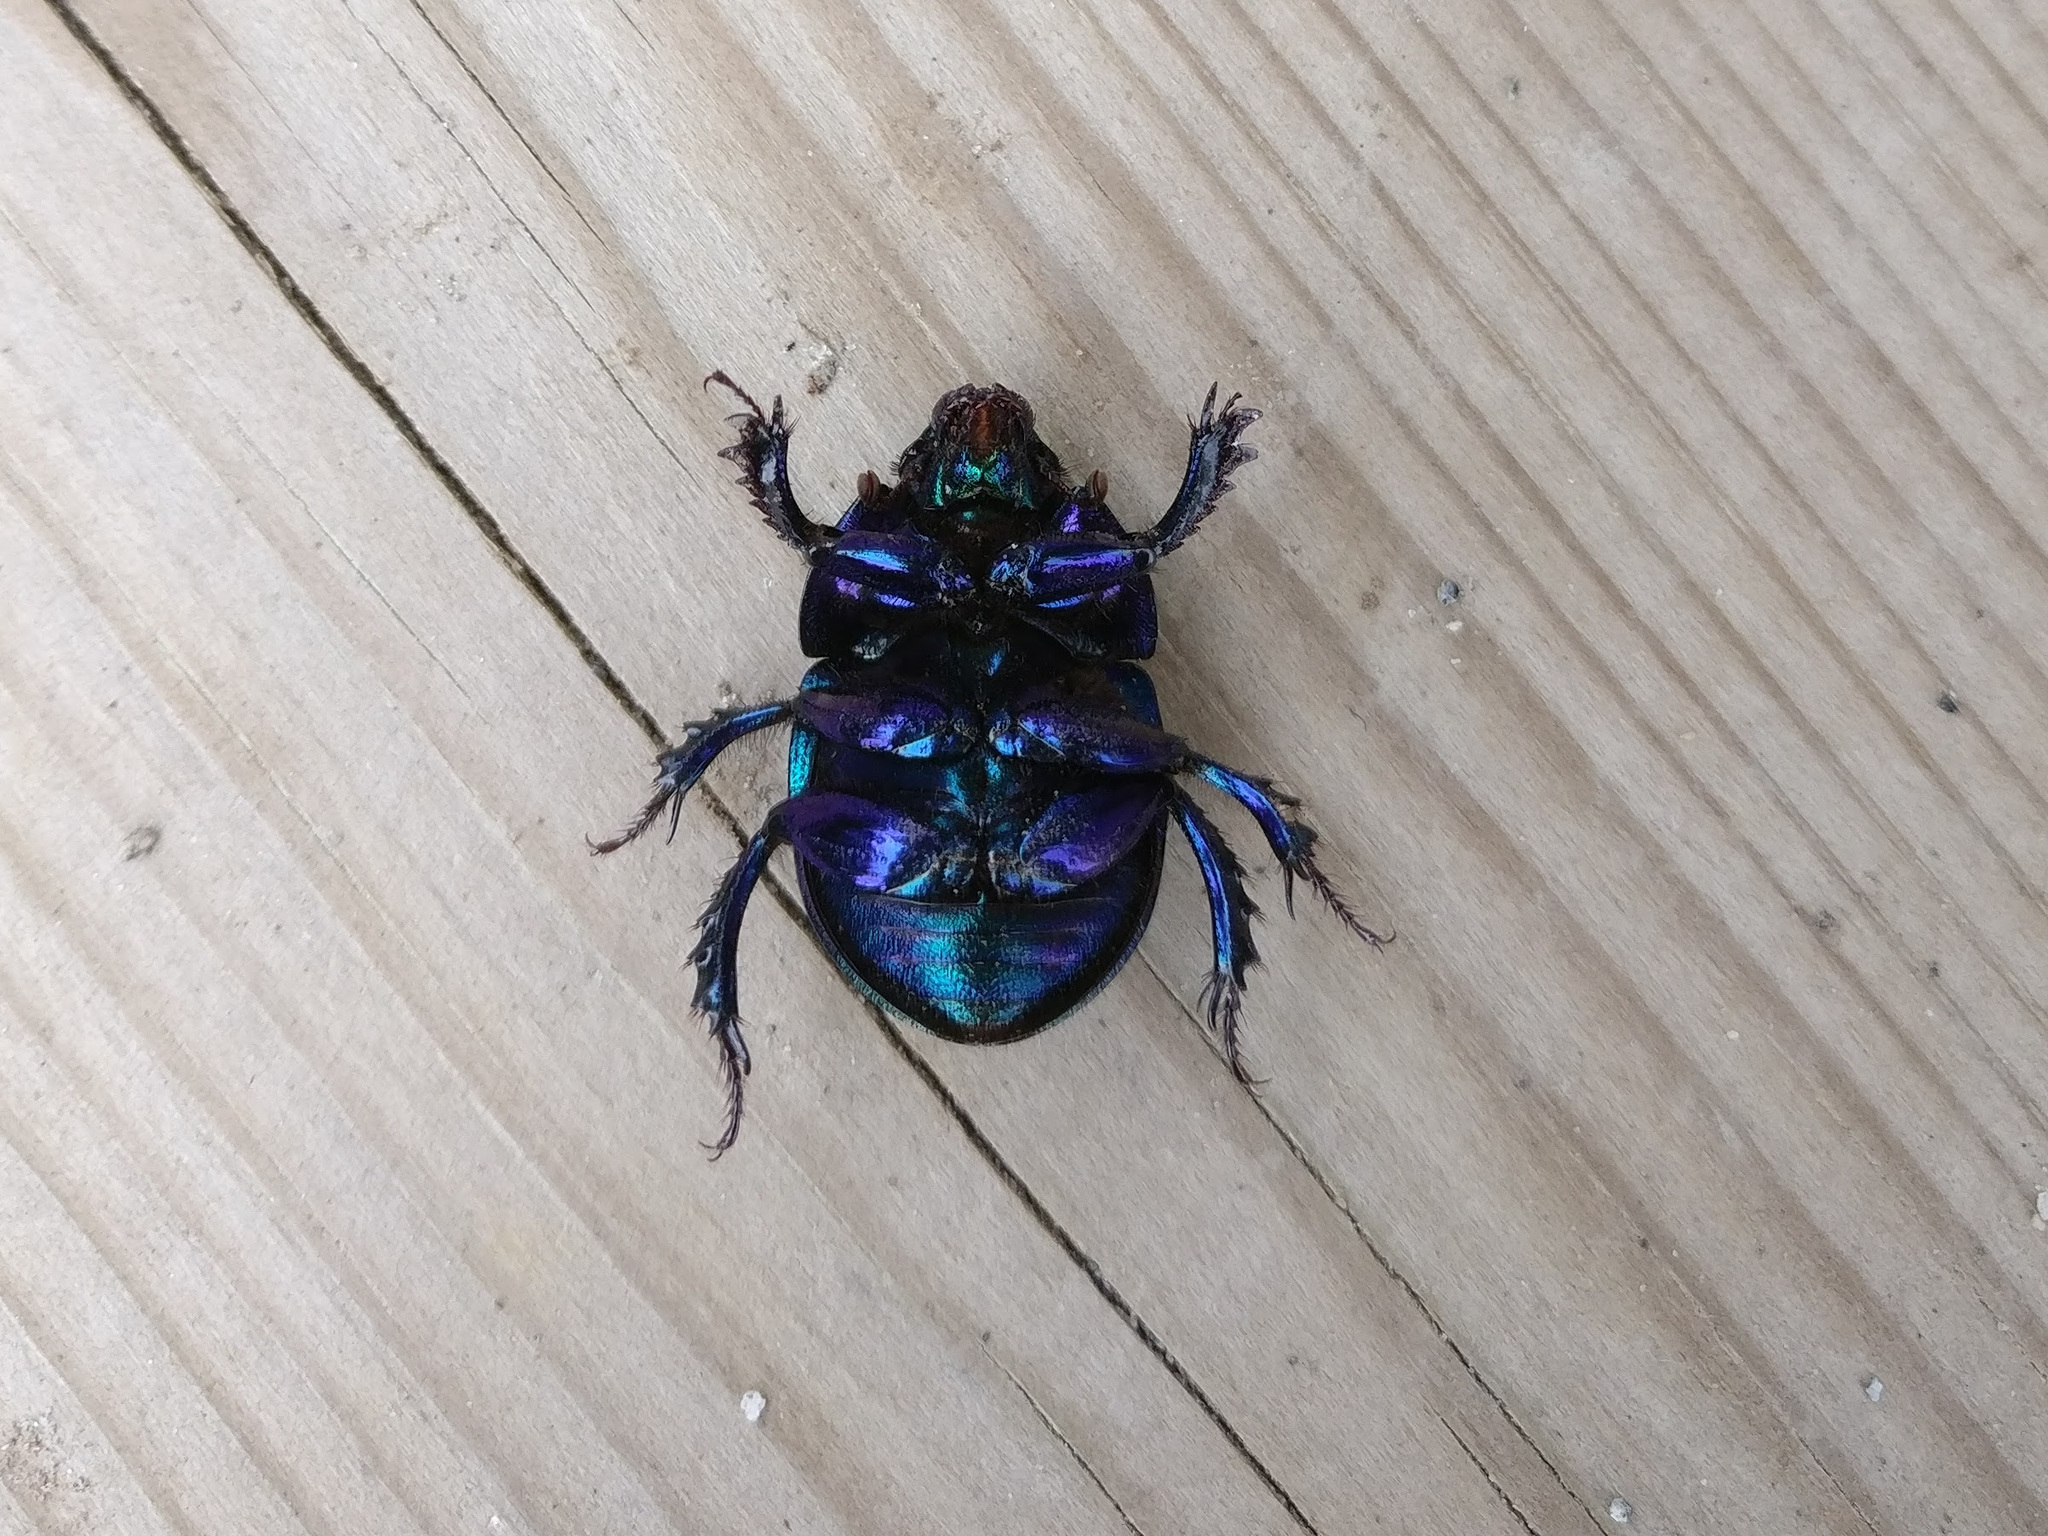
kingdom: Animalia
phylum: Arthropoda
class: Insecta
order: Coleoptera
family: Geotrupidae
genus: Anoplotrupes
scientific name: Anoplotrupes stercorosus
